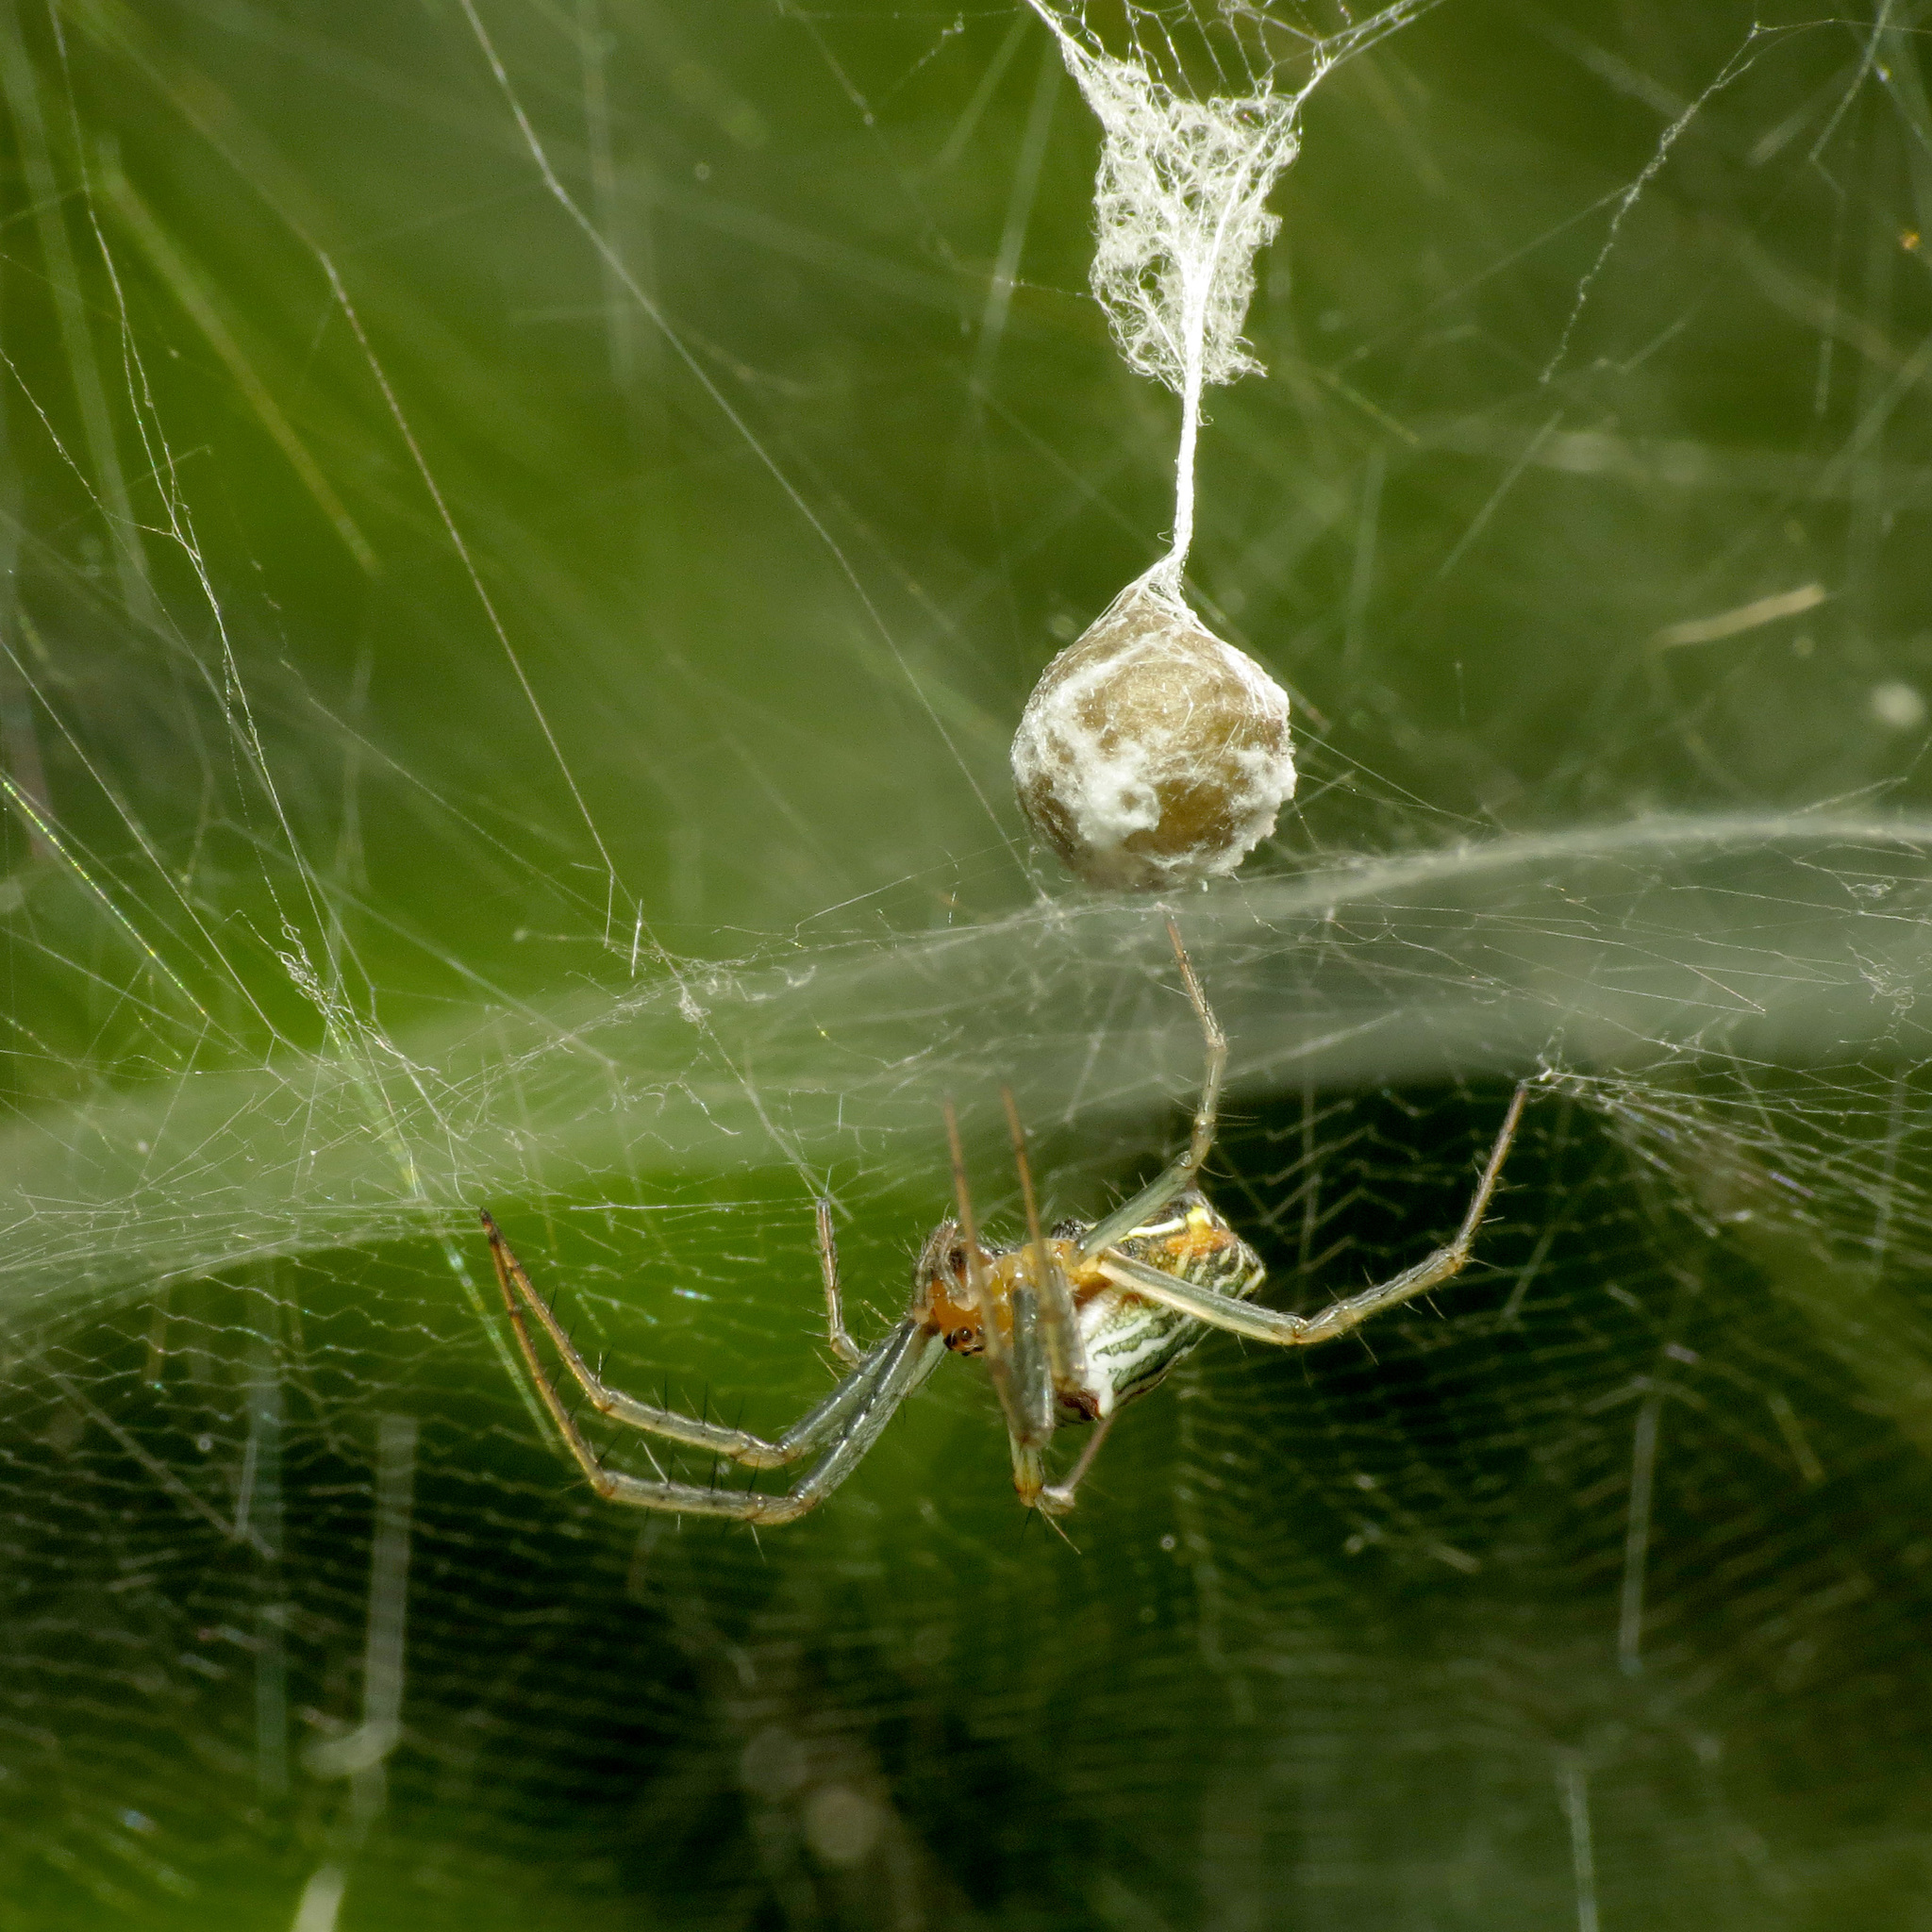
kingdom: Animalia
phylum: Arthropoda
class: Arachnida
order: Araneae
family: Araneidae
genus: Mecynogea
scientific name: Mecynogea lemniscata
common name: Orb weavers
